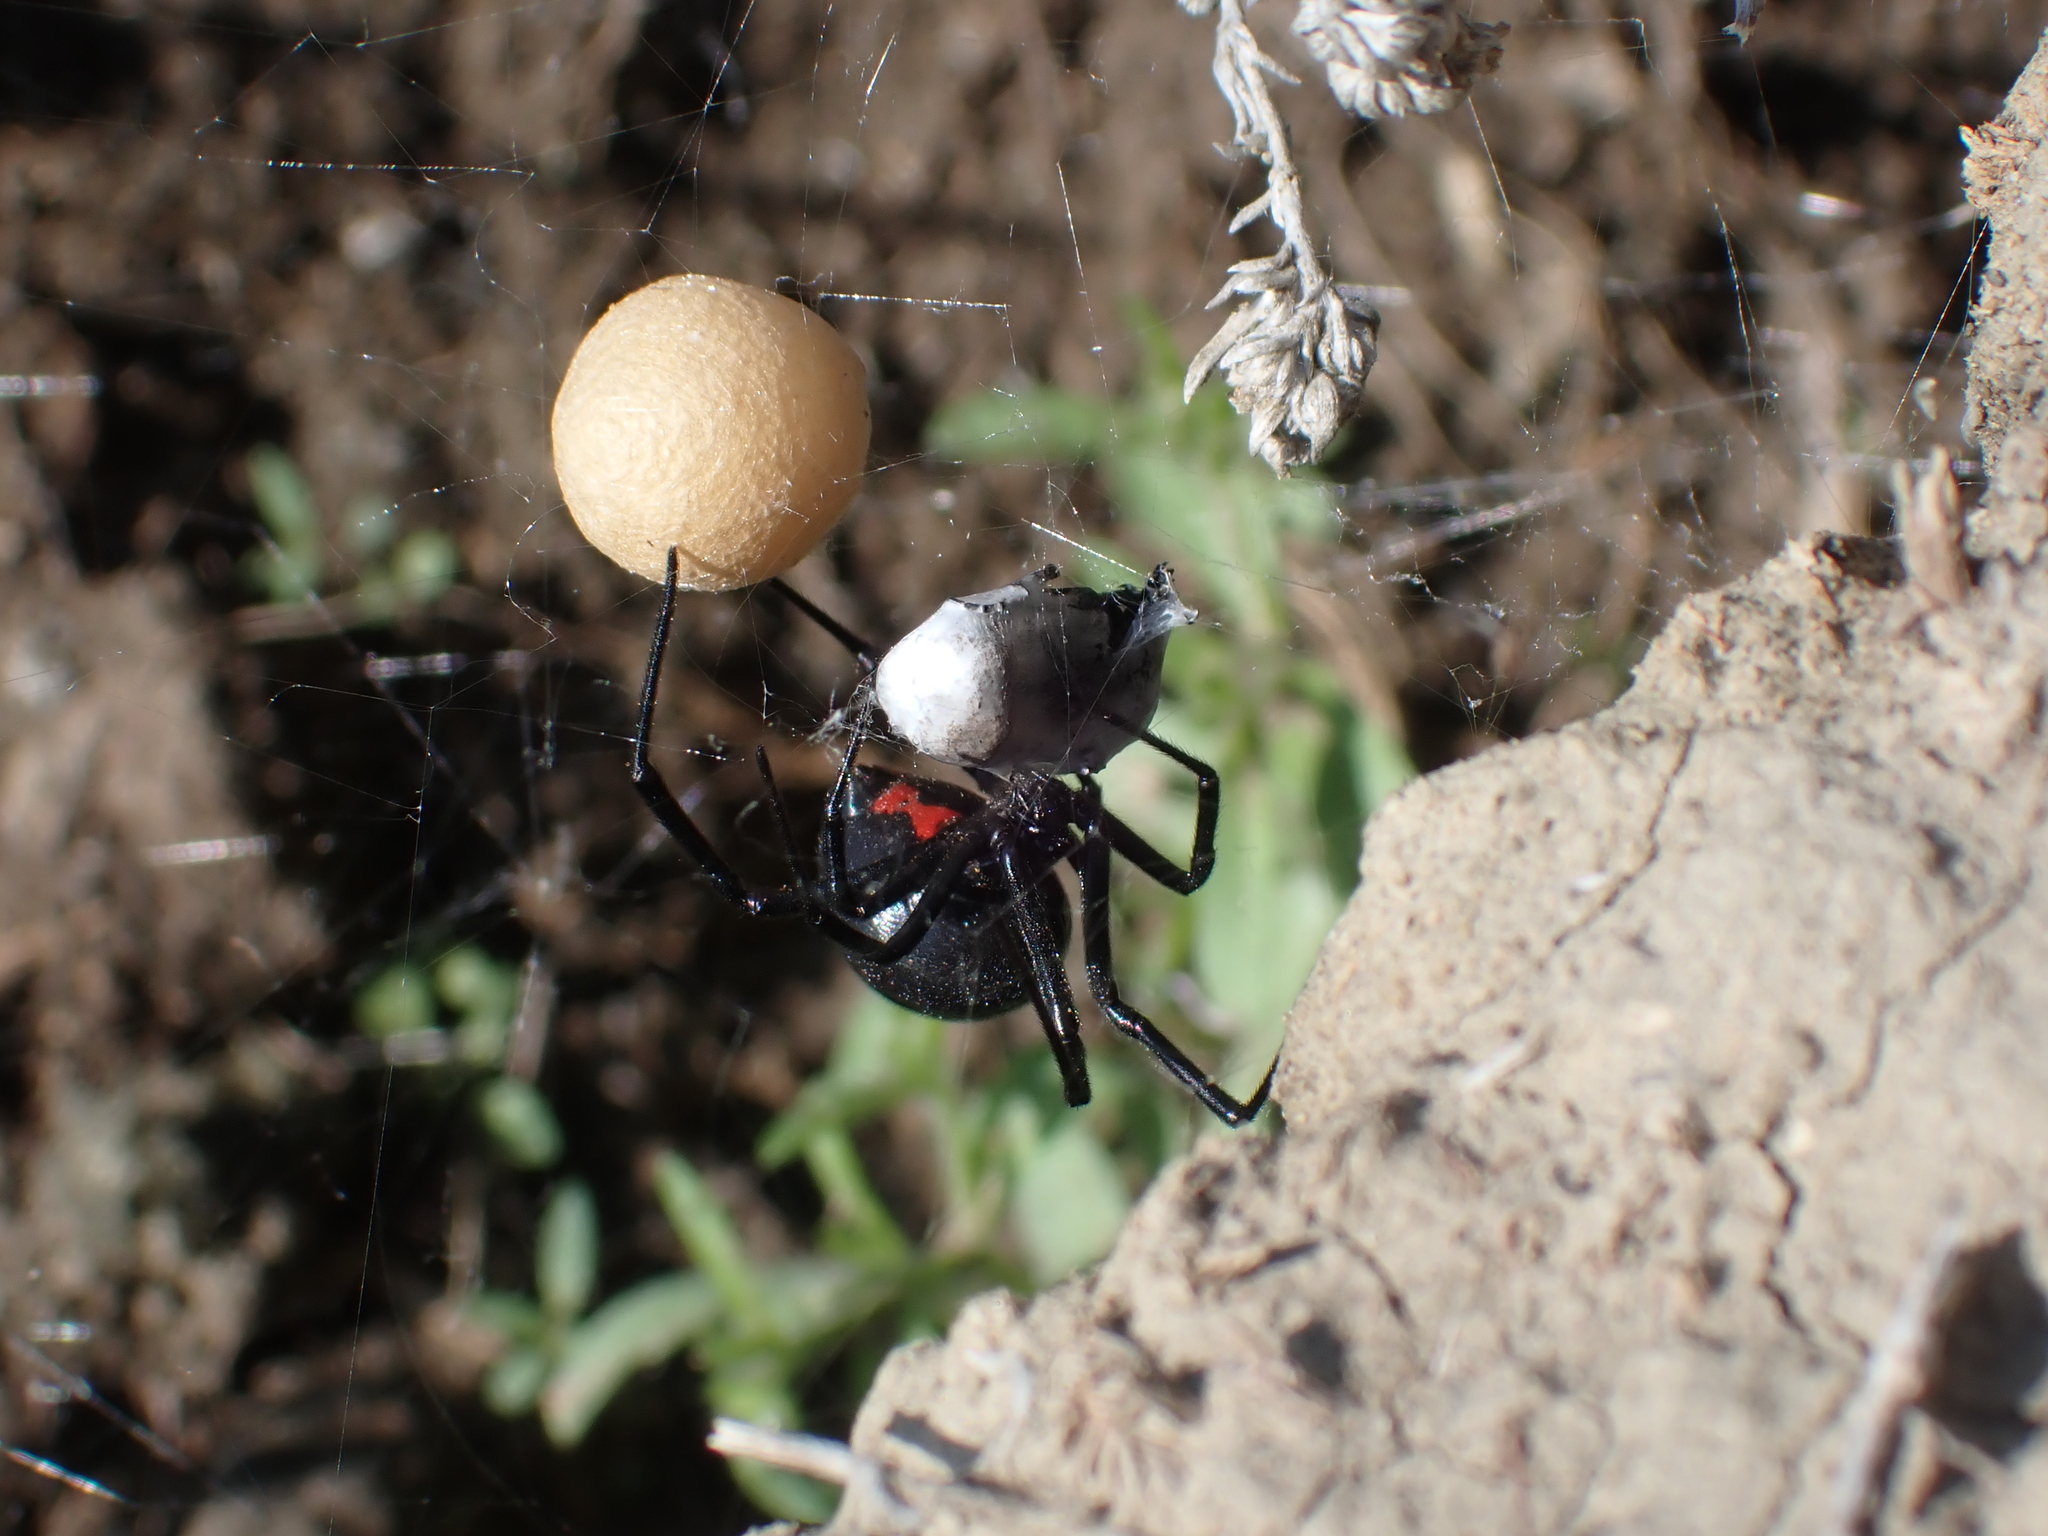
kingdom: Animalia
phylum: Arthropoda
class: Arachnida
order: Araneae
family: Theridiidae
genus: Latrodectus
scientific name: Latrodectus hesperus
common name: Western black widow
